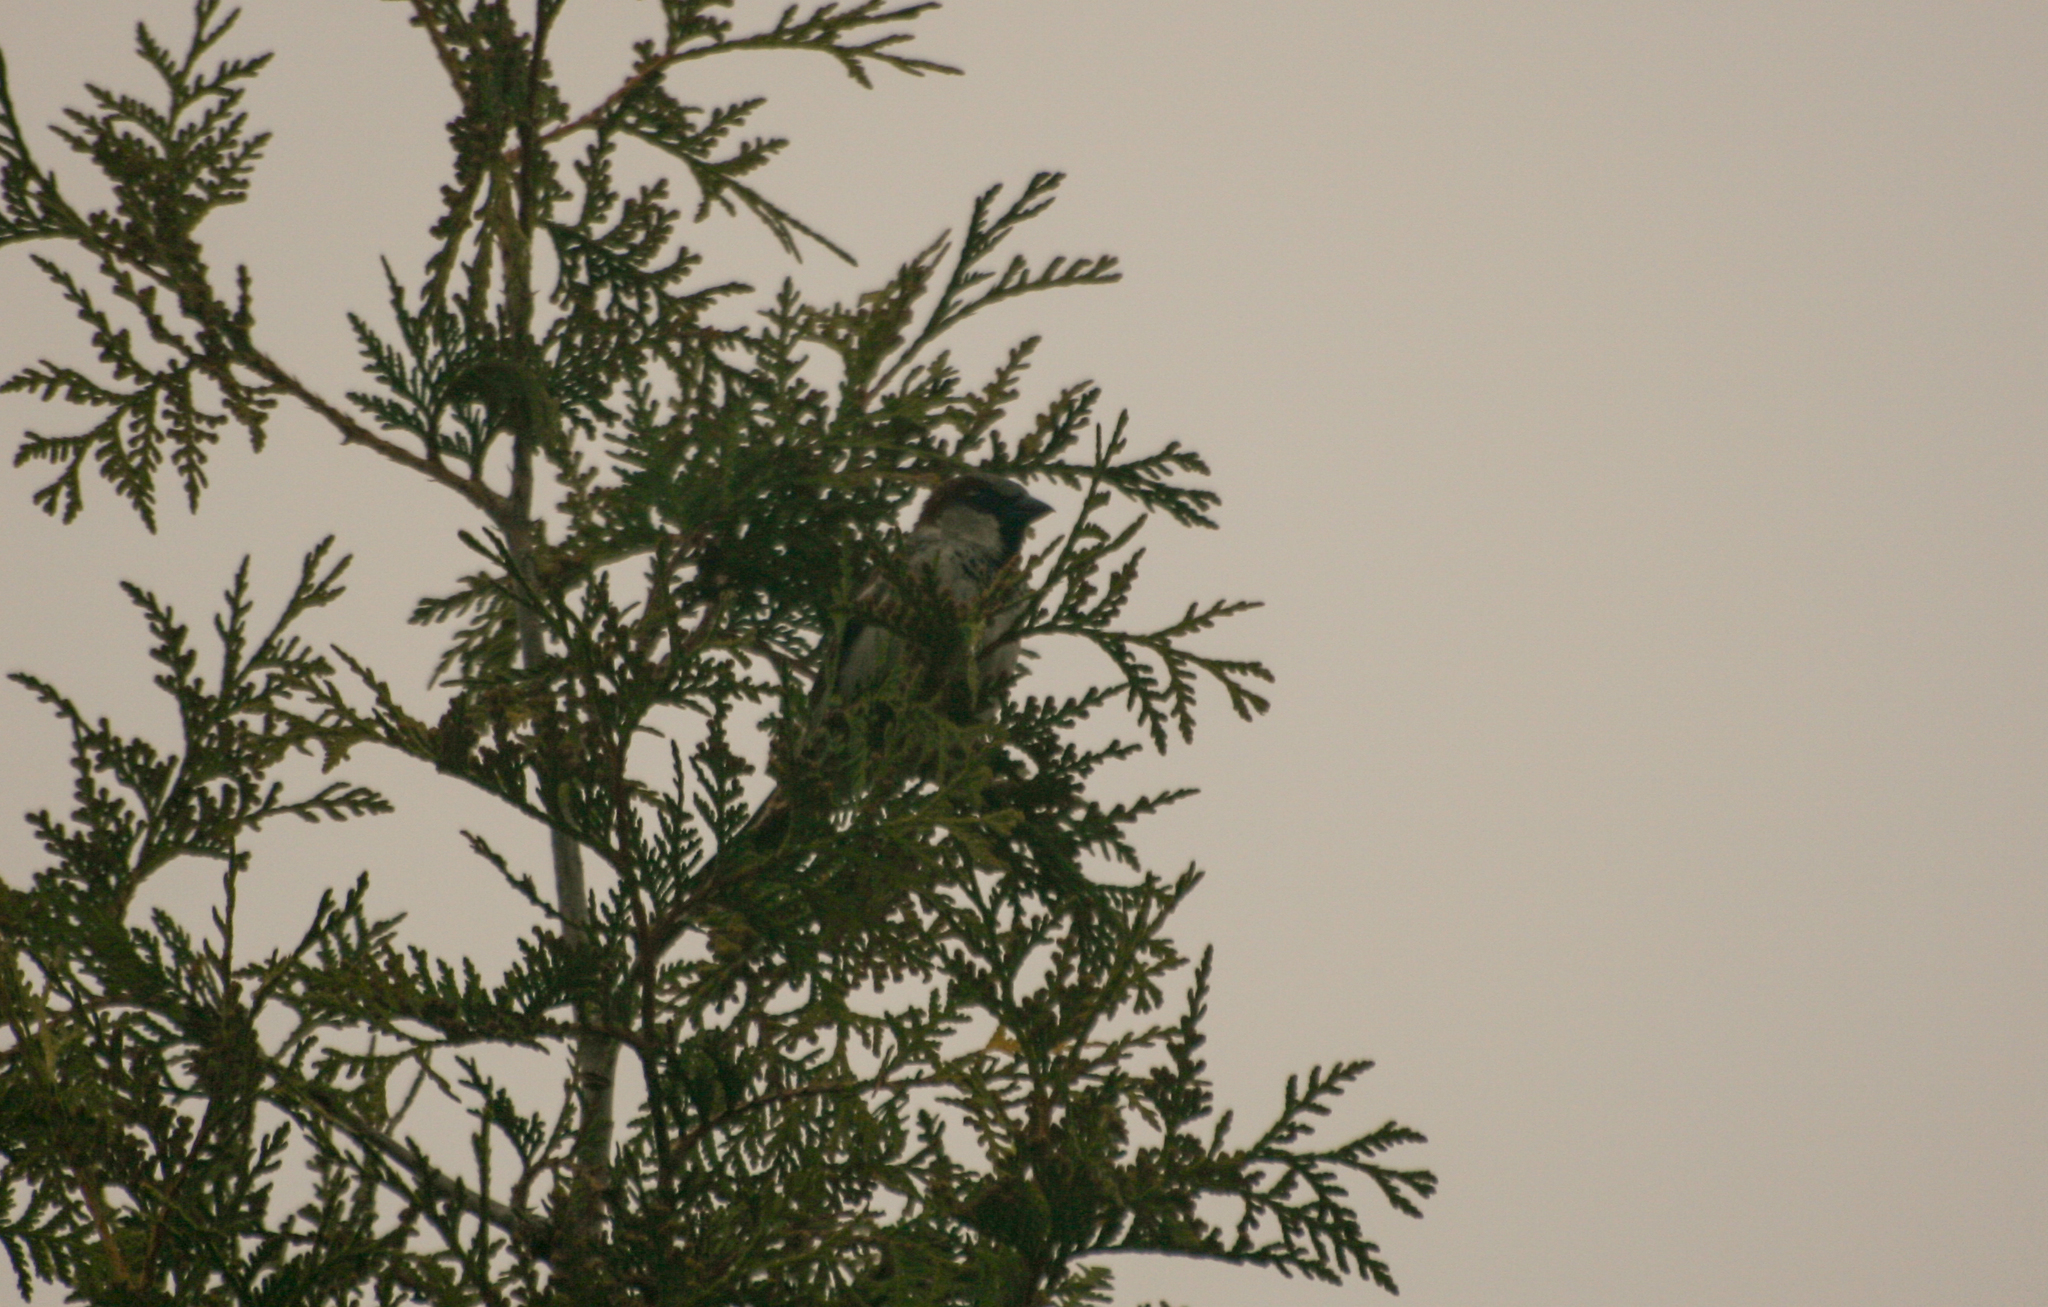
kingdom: Animalia
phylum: Chordata
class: Aves
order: Passeriformes
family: Passeridae
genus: Passer
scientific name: Passer domesticus
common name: House sparrow
